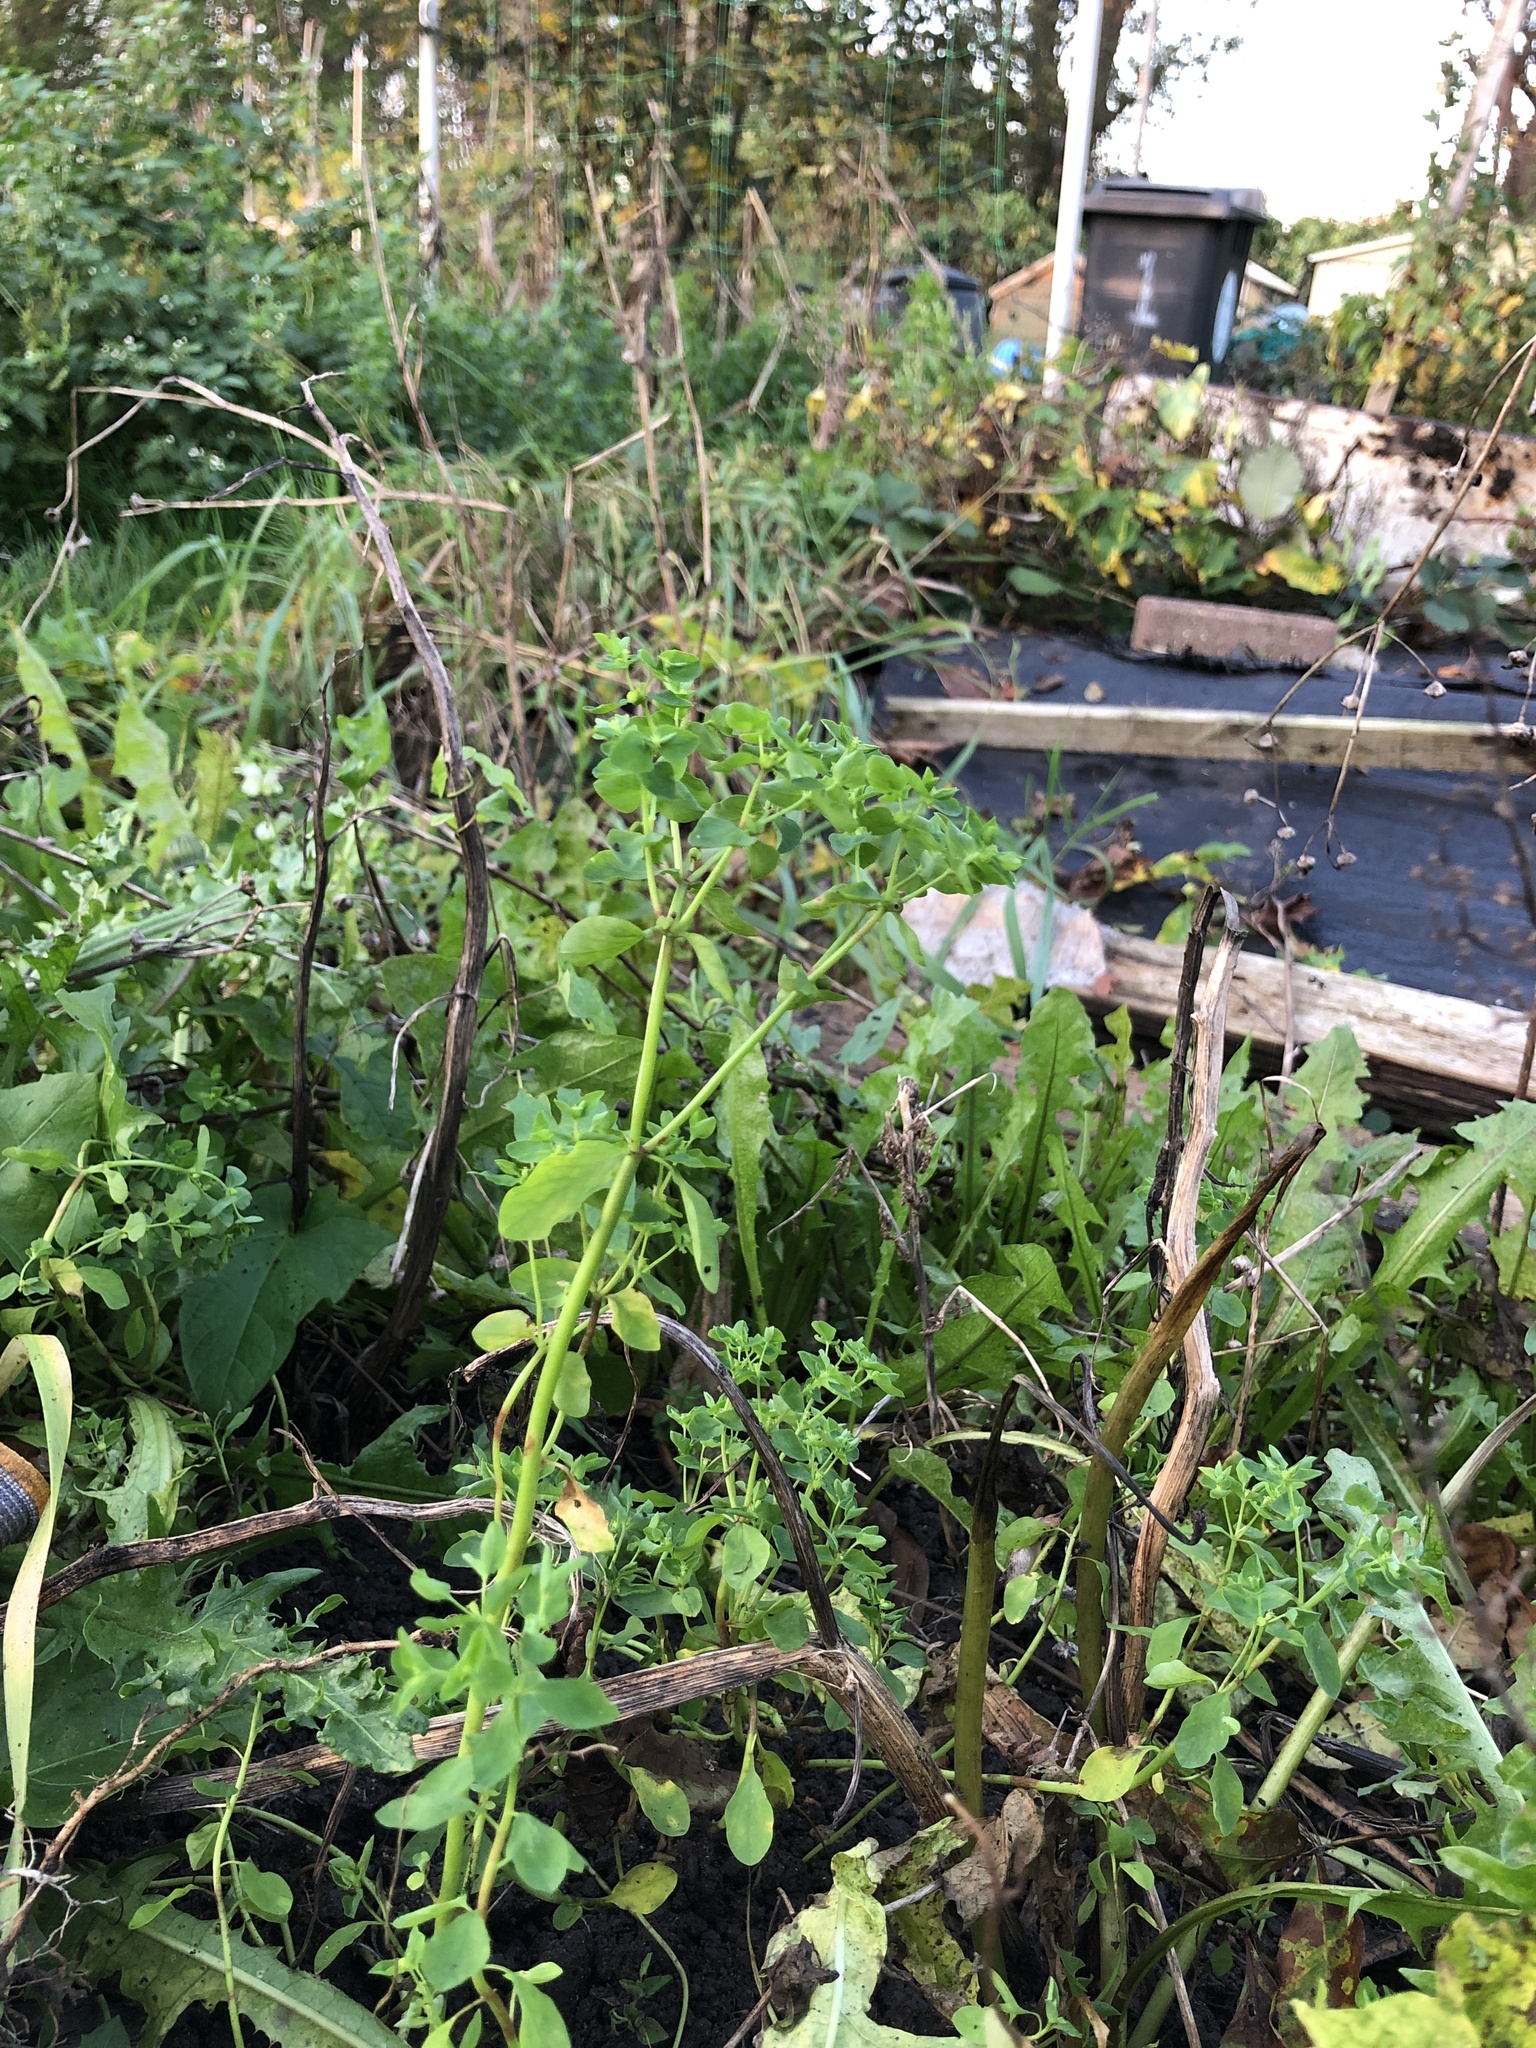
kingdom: Plantae
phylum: Tracheophyta
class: Magnoliopsida
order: Malpighiales
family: Euphorbiaceae
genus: Euphorbia
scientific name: Euphorbia peplus
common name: Petty spurge
